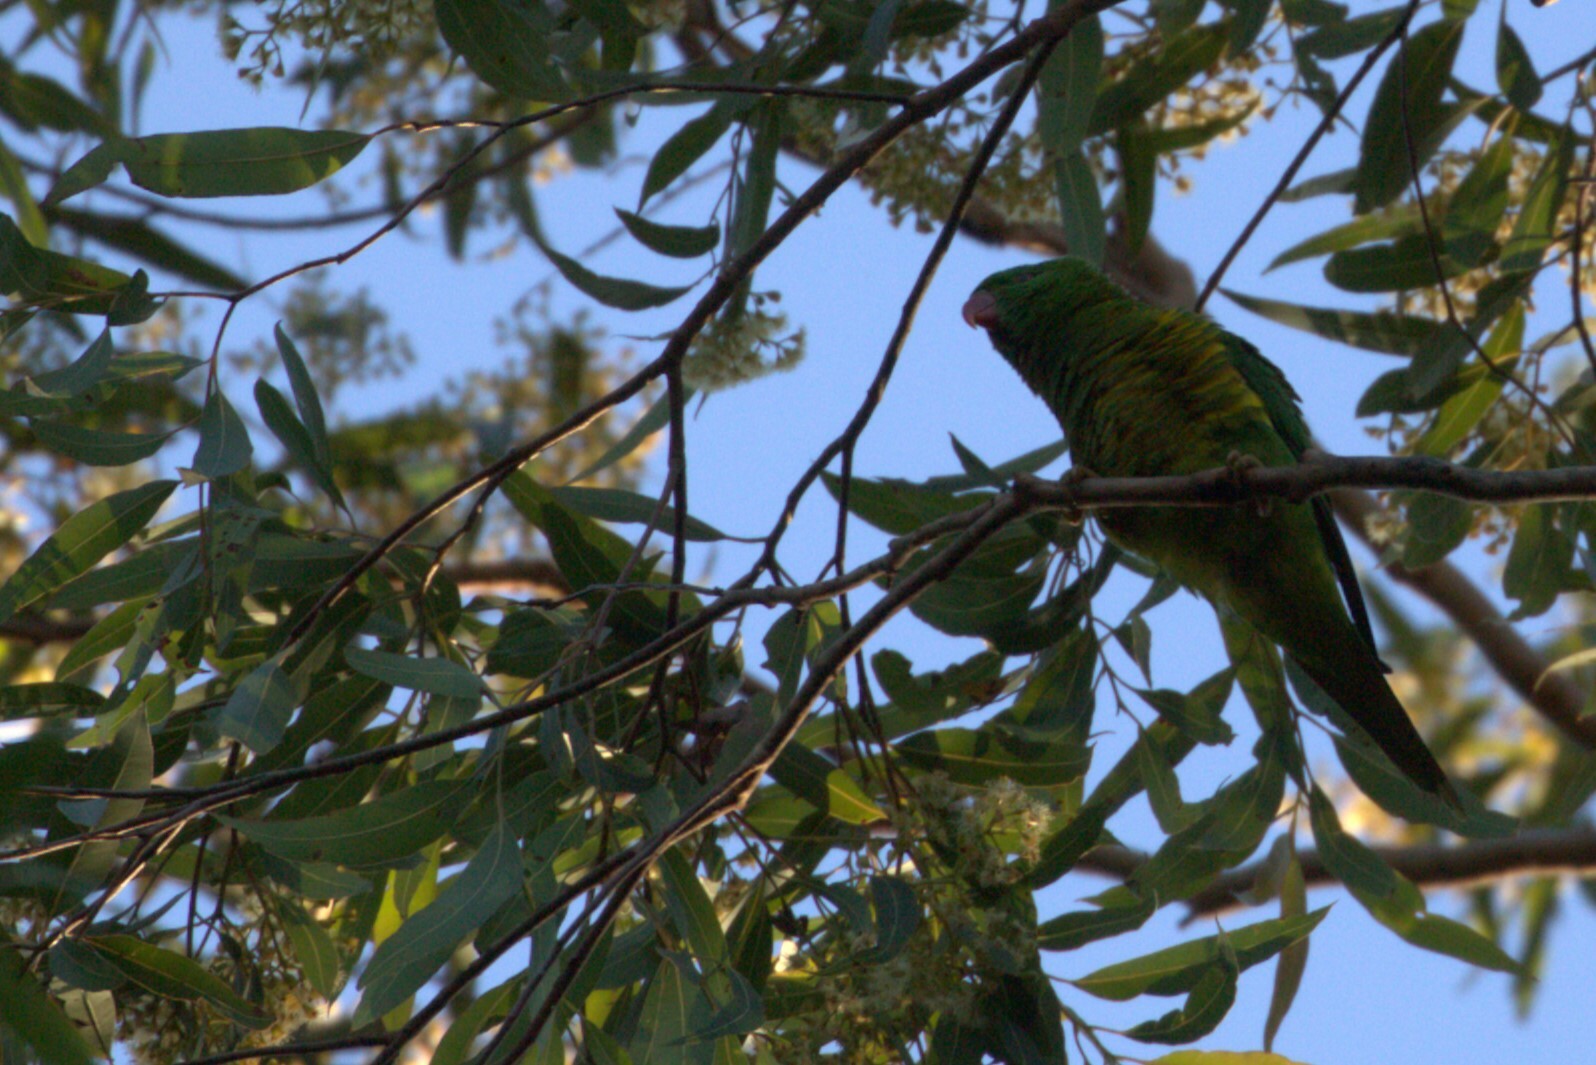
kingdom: Animalia
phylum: Chordata
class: Aves
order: Psittaciformes
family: Psittacidae
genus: Trichoglossus
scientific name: Trichoglossus chlorolepidotus
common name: Scaly-breasted lorikeet
